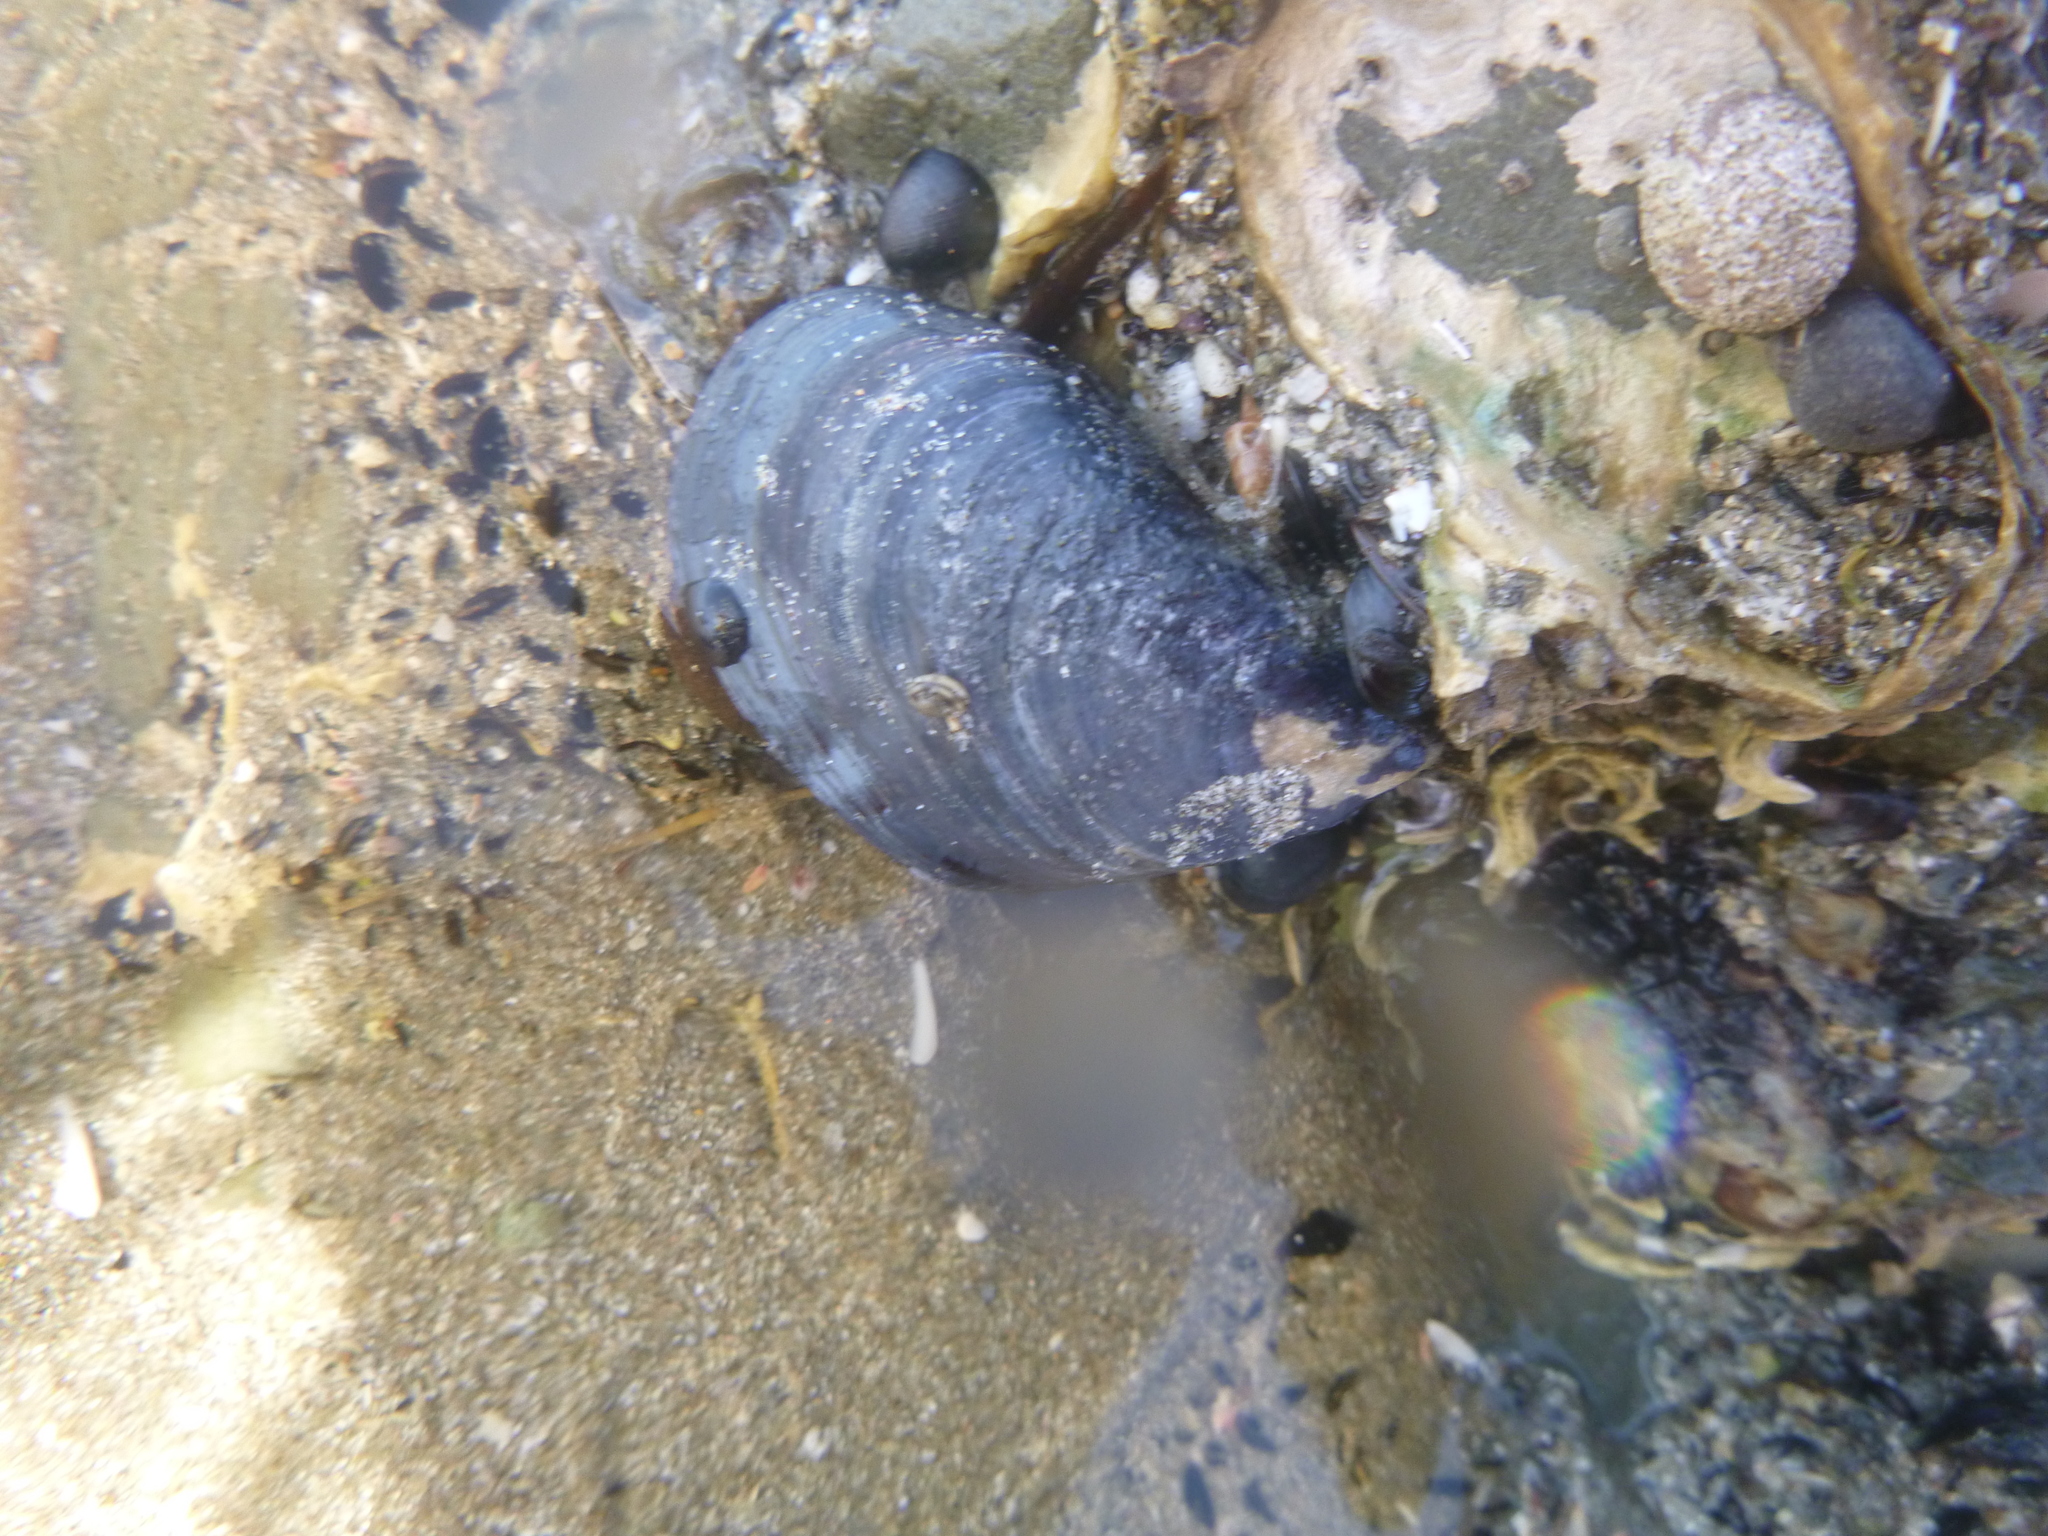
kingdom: Animalia
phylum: Mollusca
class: Bivalvia
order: Mytilida
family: Mytilidae
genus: Mytilus
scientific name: Mytilus planulatus
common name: Australian mussel
